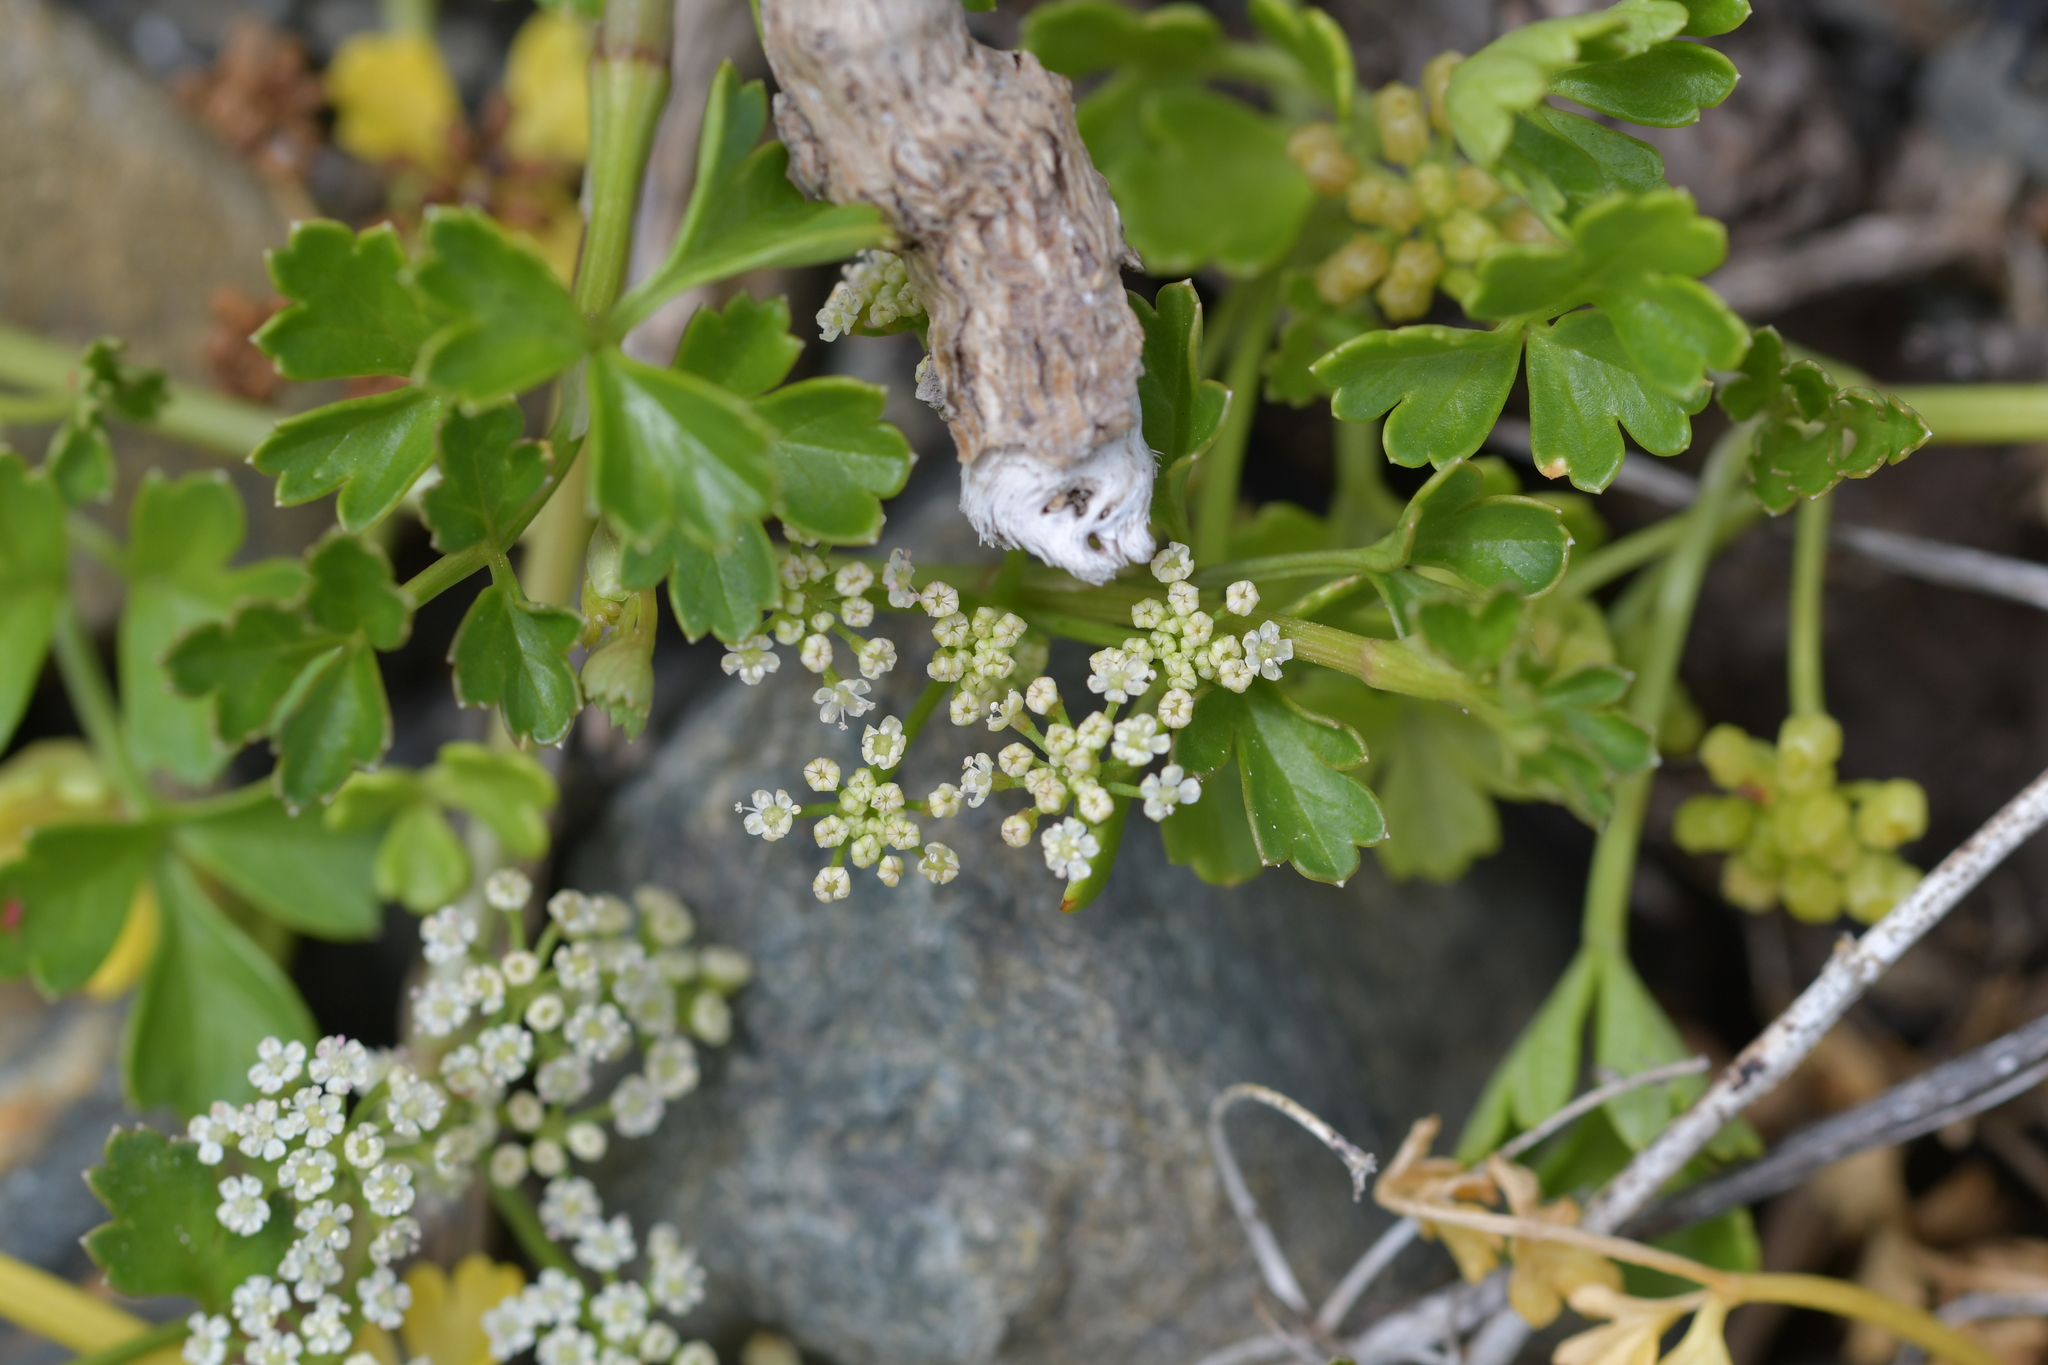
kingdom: Plantae
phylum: Tracheophyta
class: Magnoliopsida
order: Apiales
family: Apiaceae
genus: Apium
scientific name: Apium prostratum
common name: Prostrate marshwort
